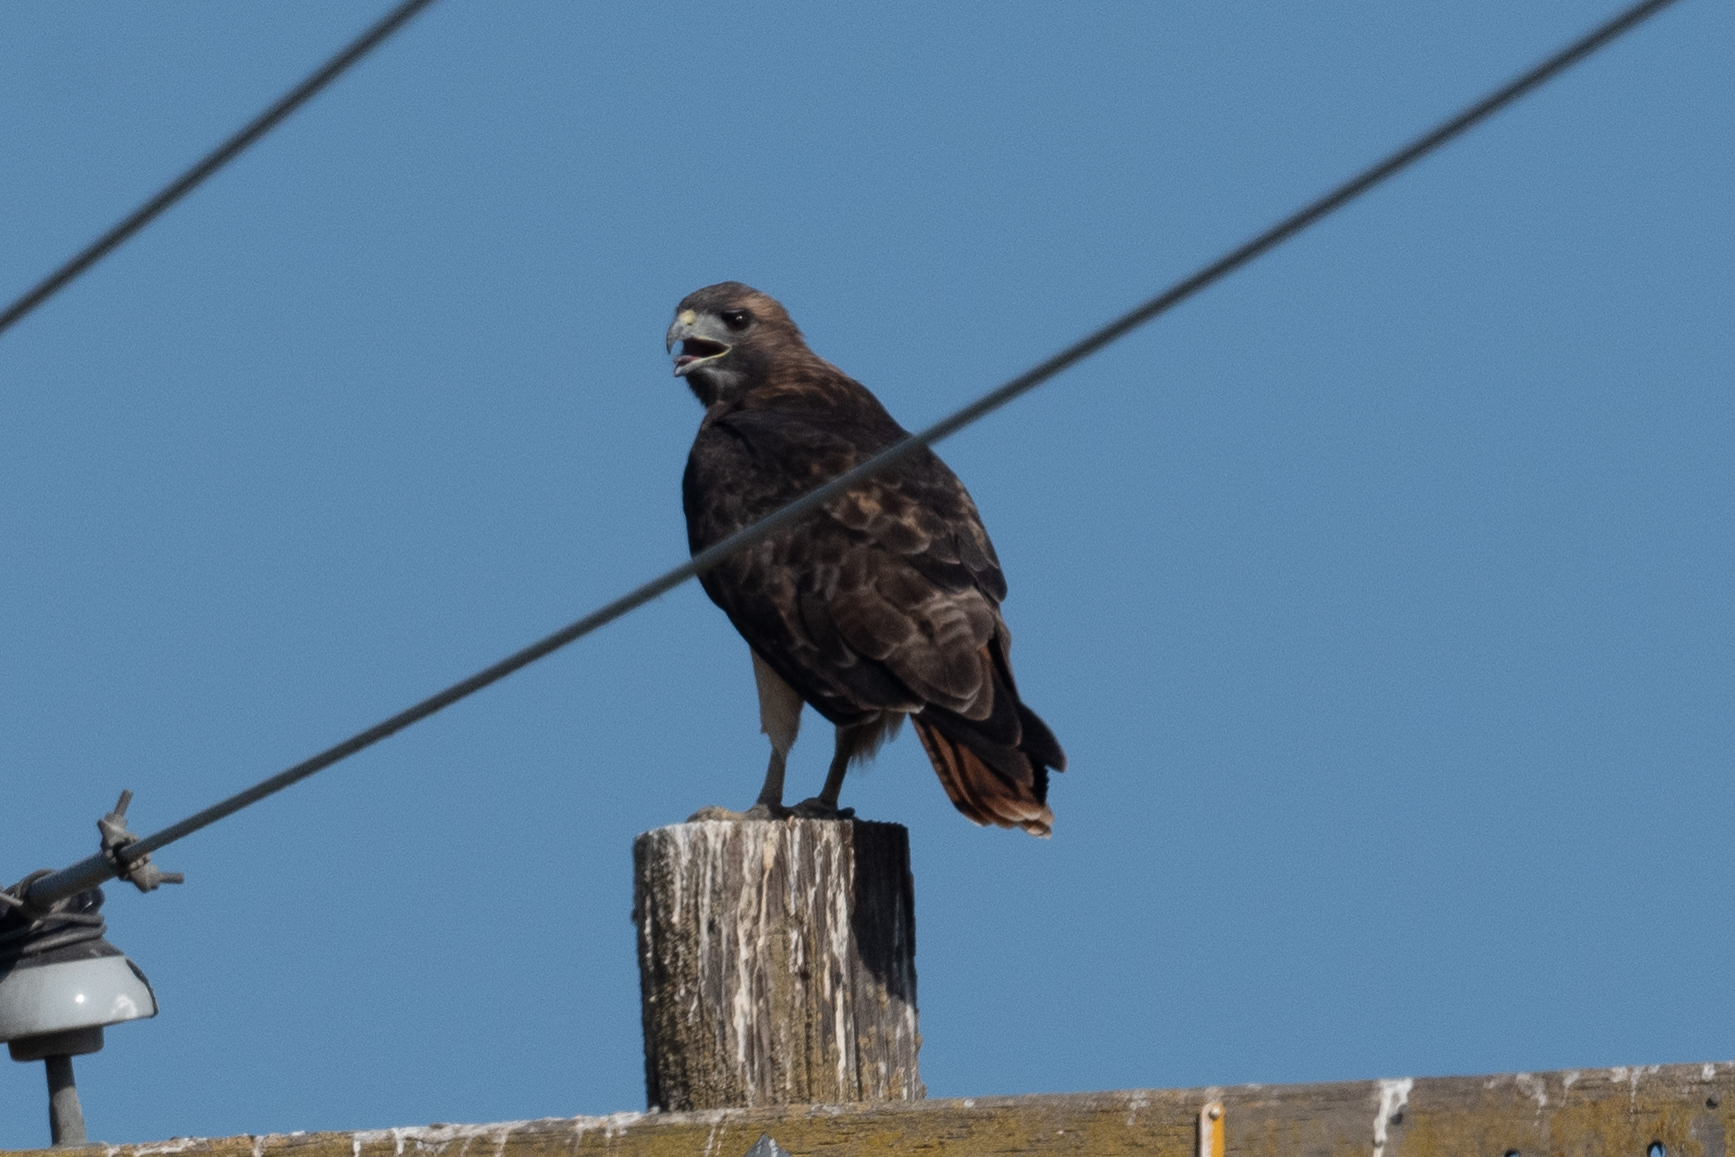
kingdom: Animalia
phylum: Chordata
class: Aves
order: Accipitriformes
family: Accipitridae
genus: Buteo
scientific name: Buteo jamaicensis
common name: Red-tailed hawk
